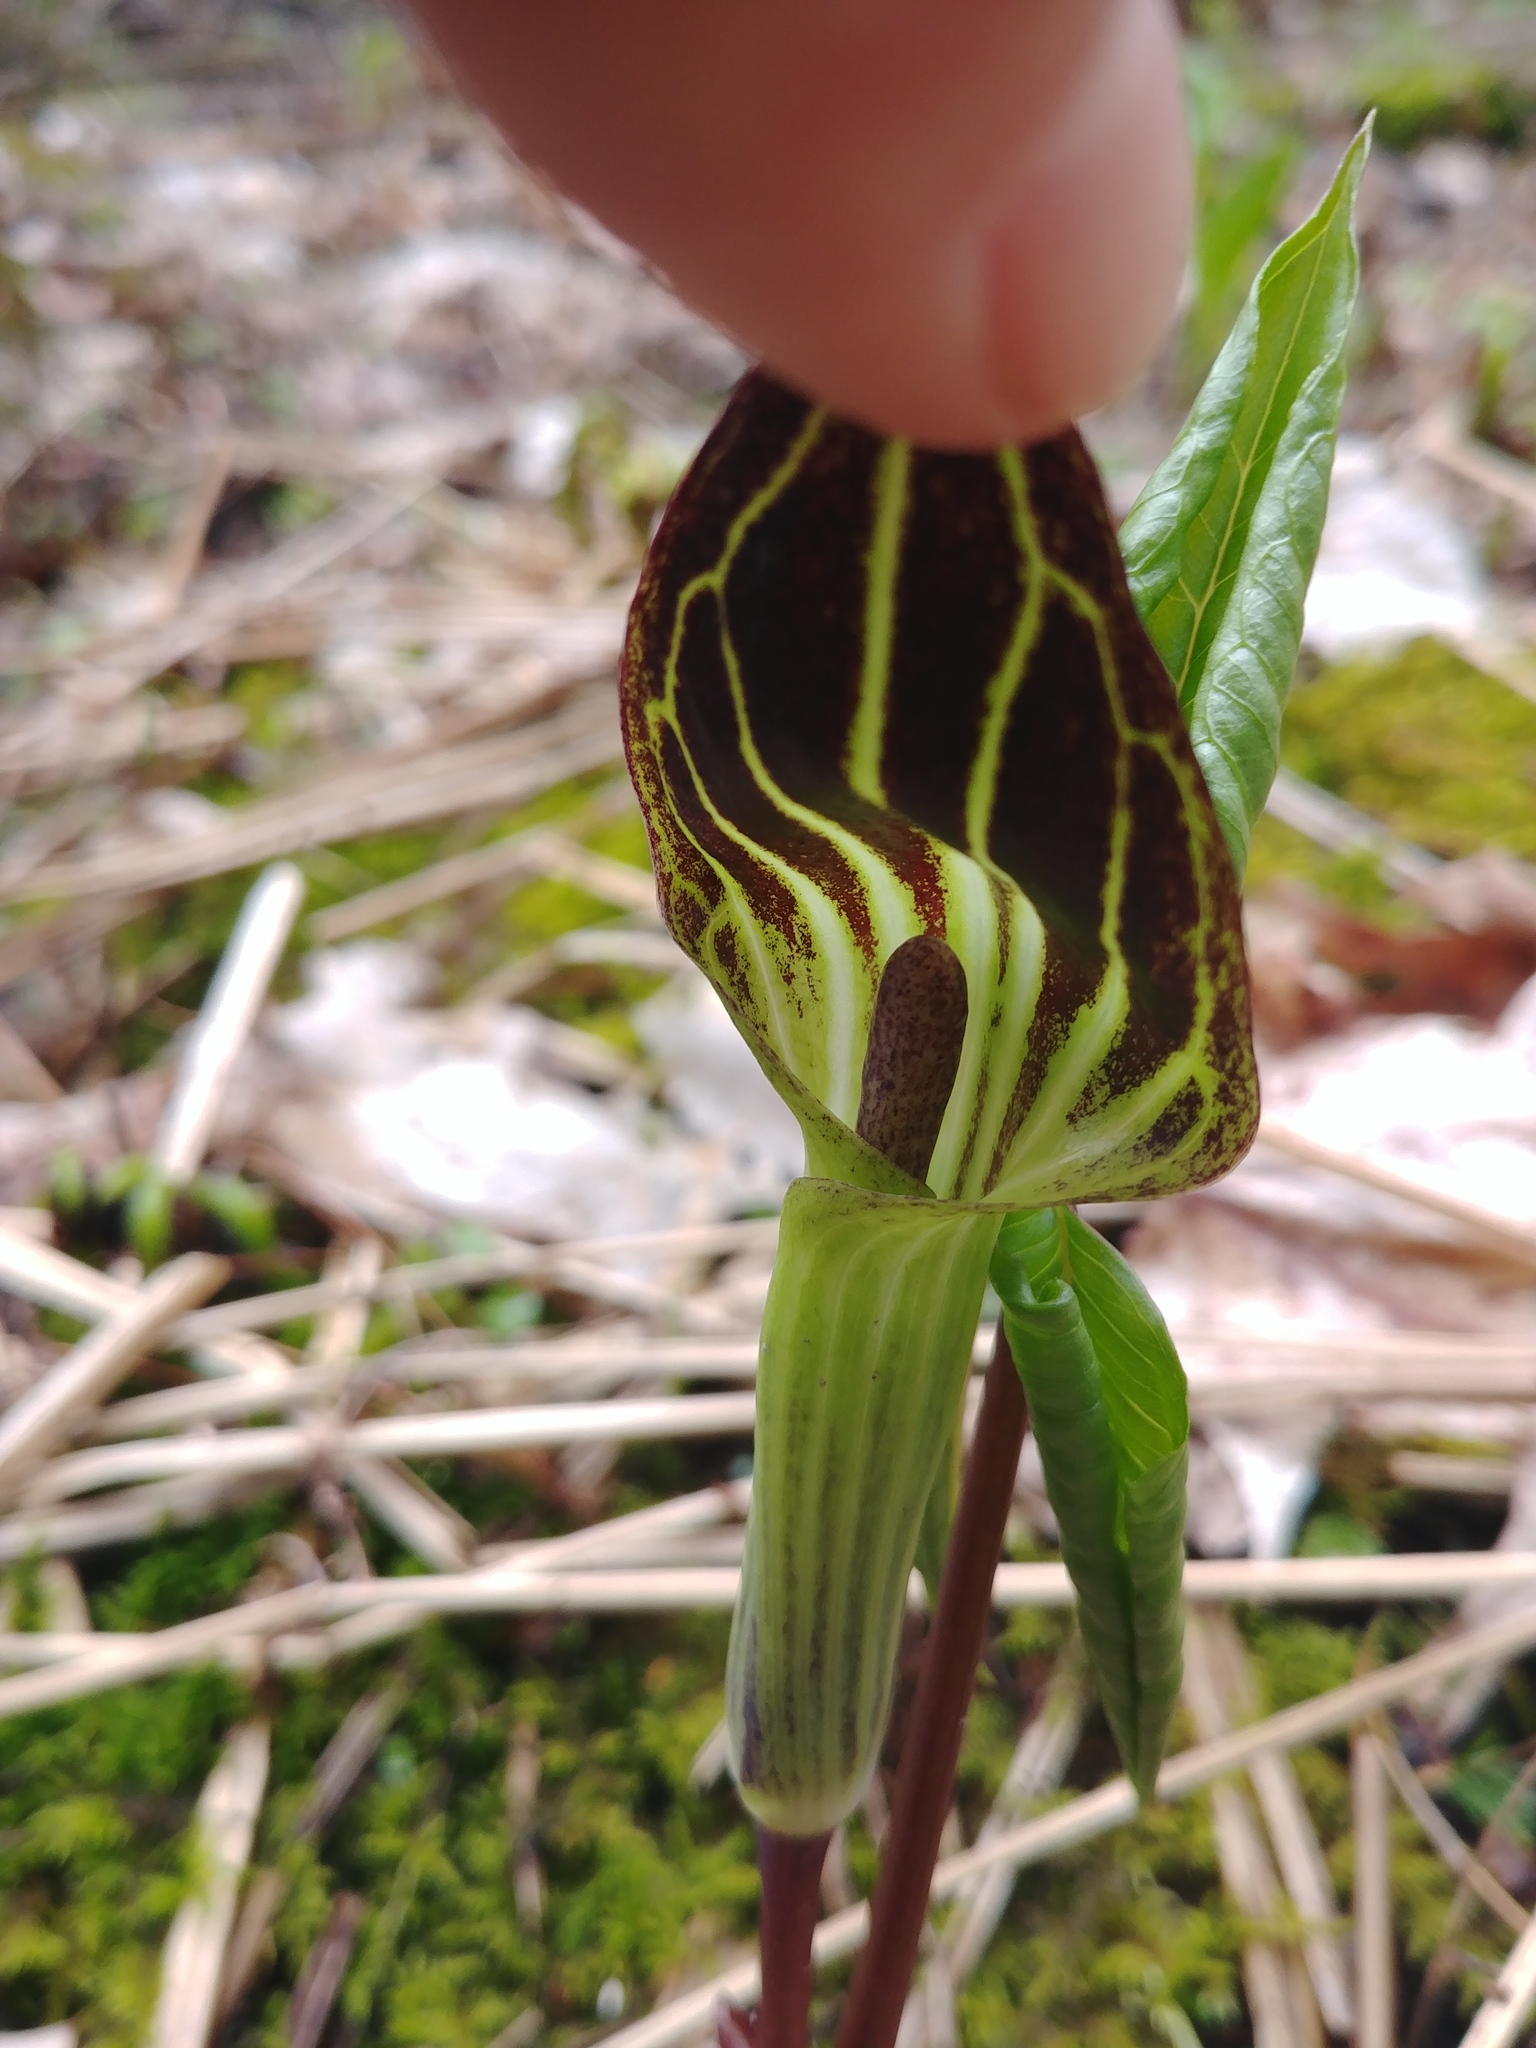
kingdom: Plantae
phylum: Tracheophyta
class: Liliopsida
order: Alismatales
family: Araceae
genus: Arisaema
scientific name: Arisaema triphyllum
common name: Jack-in-the-pulpit
